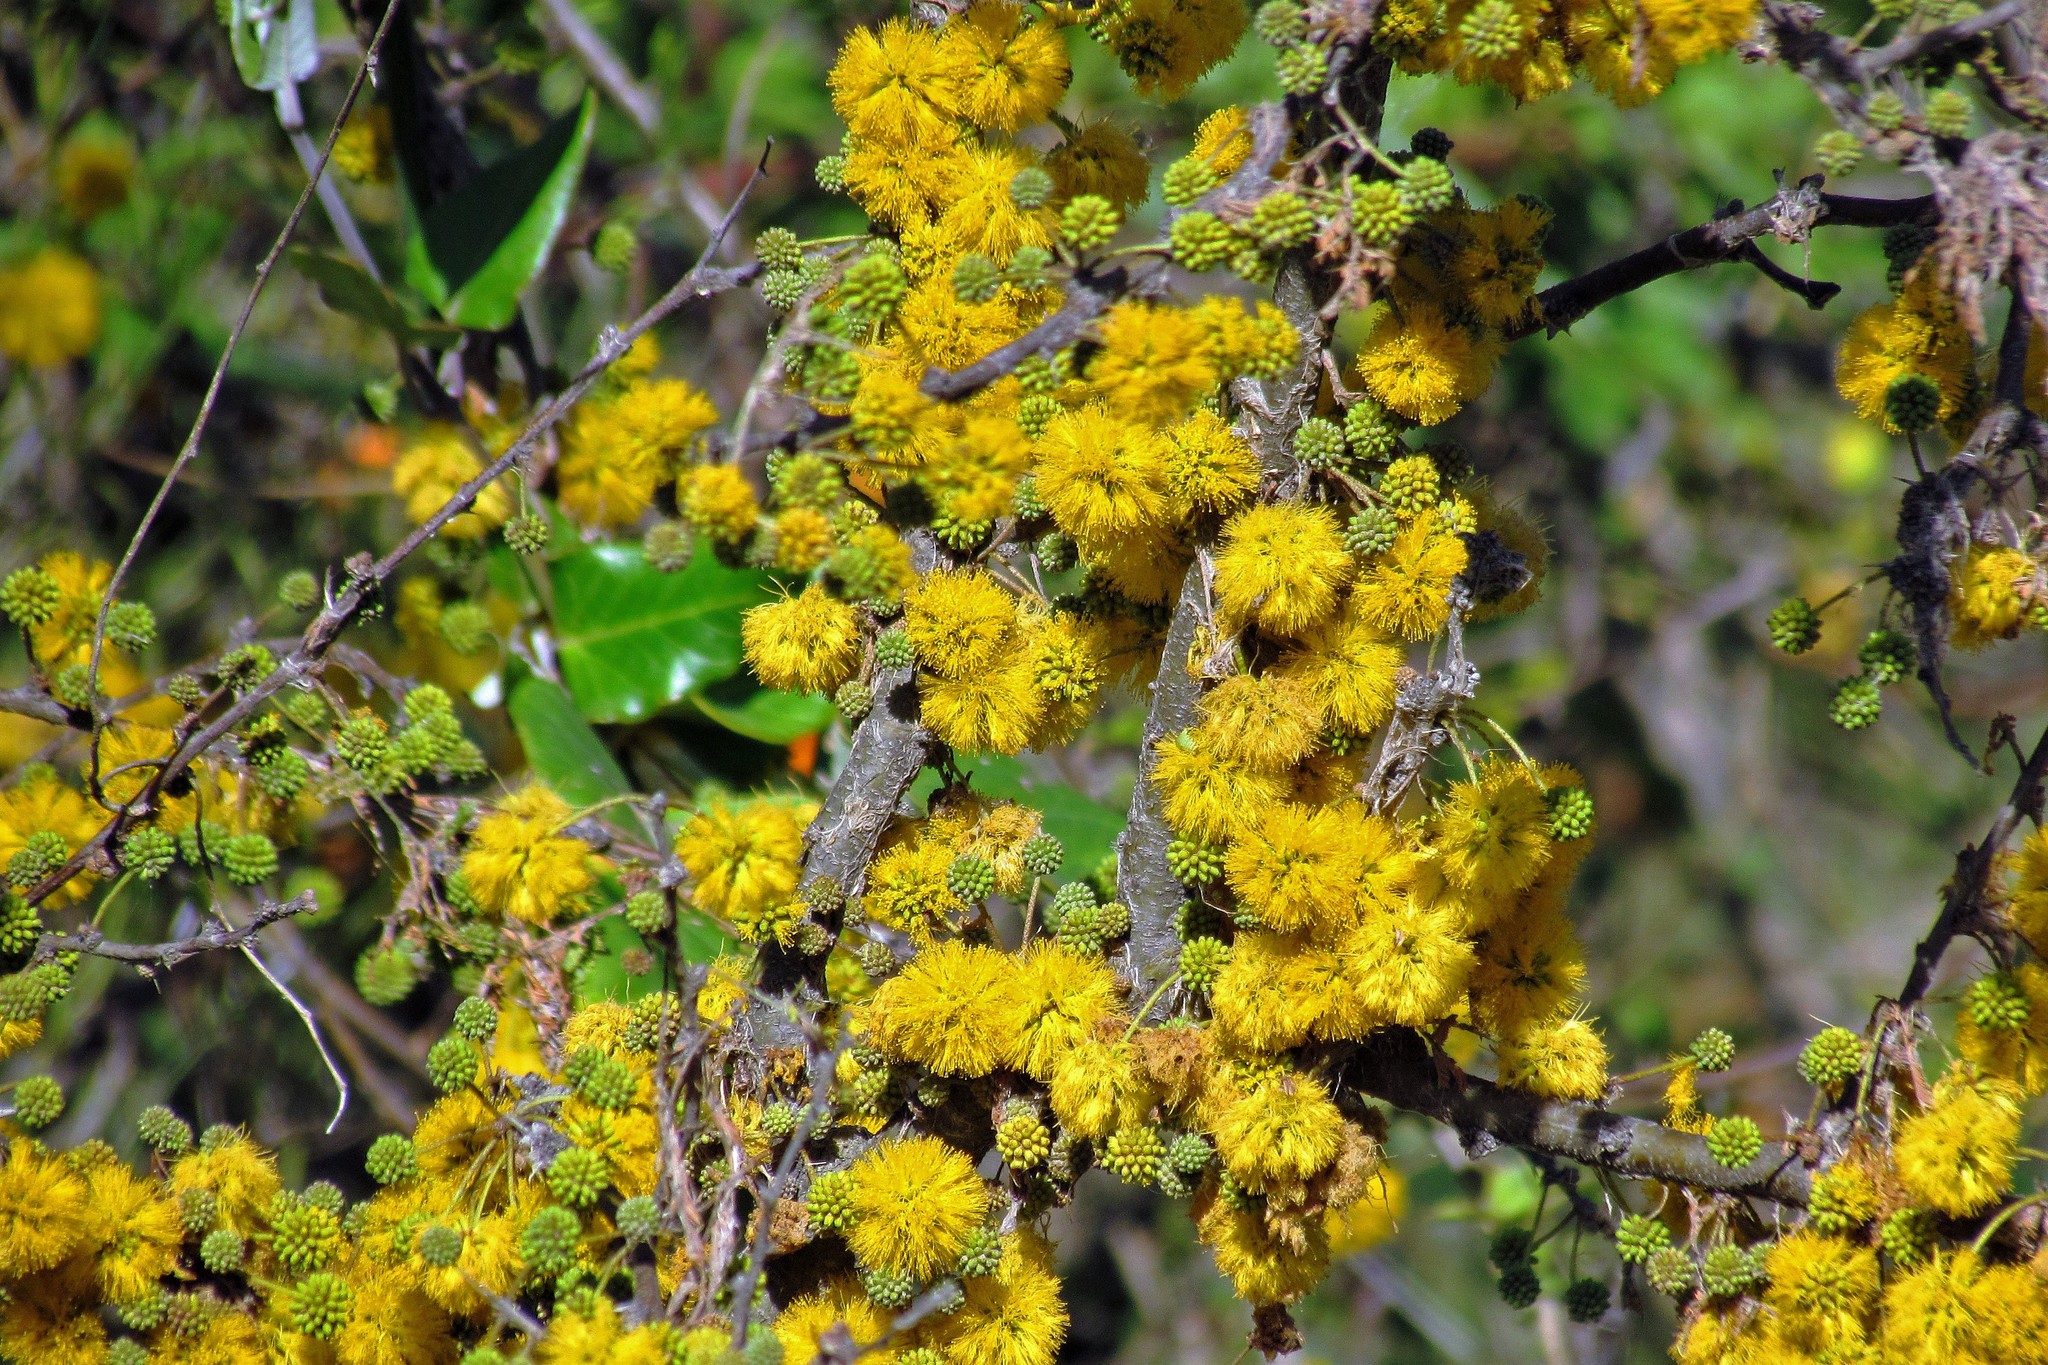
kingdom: Plantae
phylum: Tracheophyta
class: Magnoliopsida
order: Fabales
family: Fabaceae
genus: Vachellia
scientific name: Vachellia caven
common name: Roman cassie
